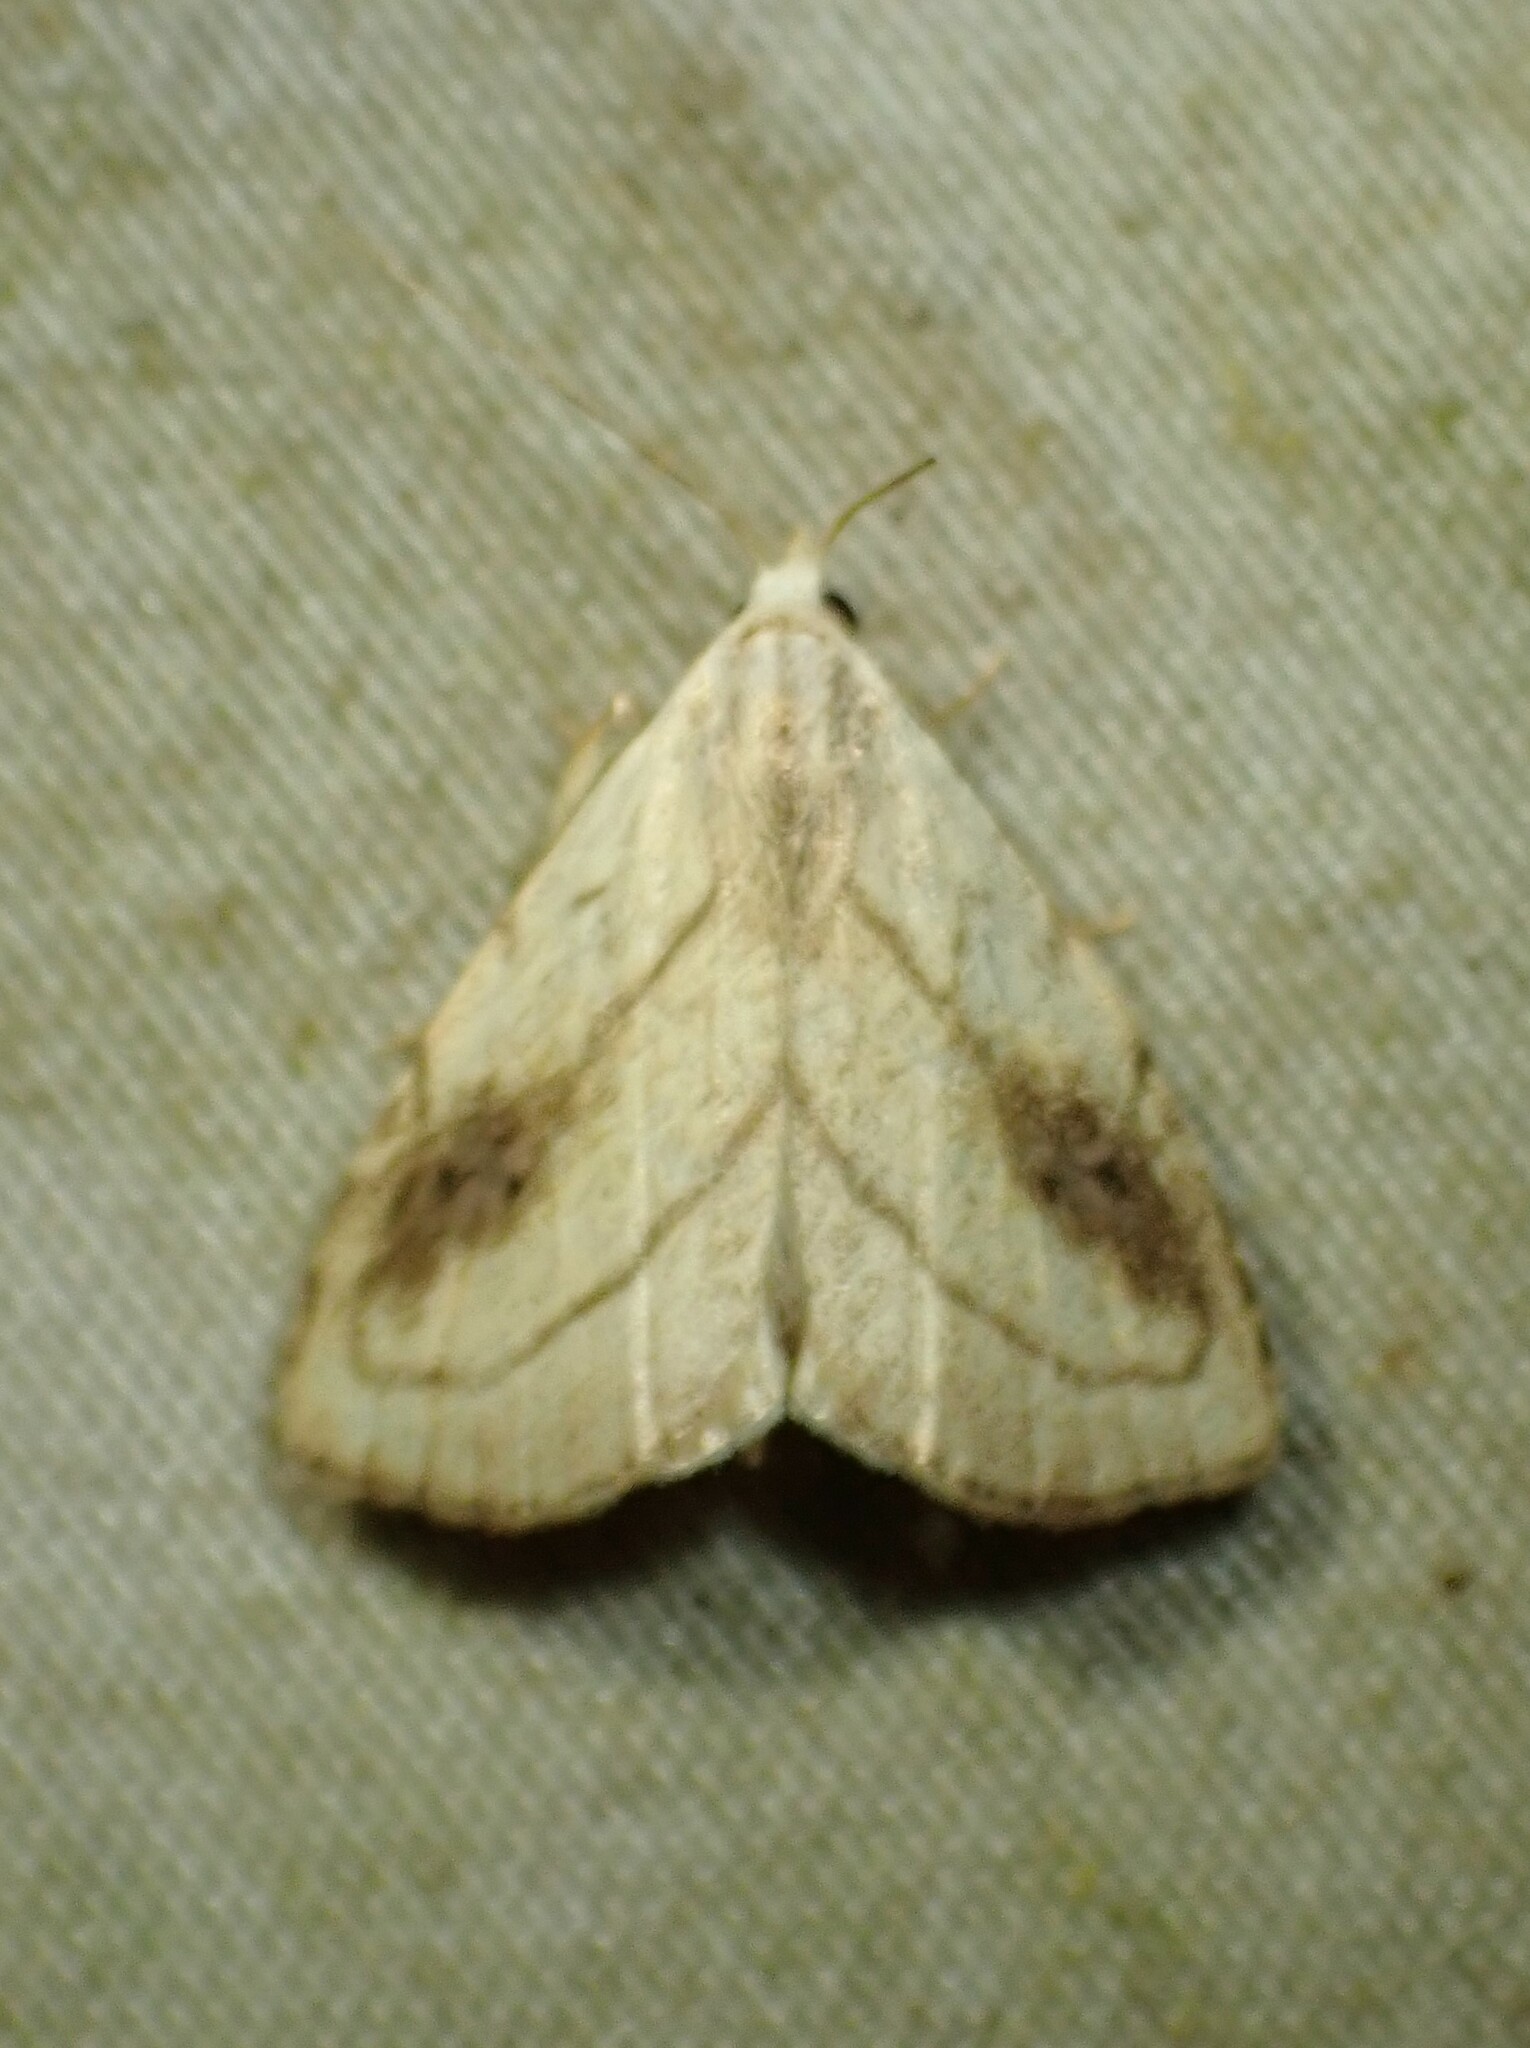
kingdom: Animalia
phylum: Arthropoda
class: Insecta
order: Lepidoptera
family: Erebidae
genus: Rivula
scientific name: Rivula propinqualis
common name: Spotted grass moth
